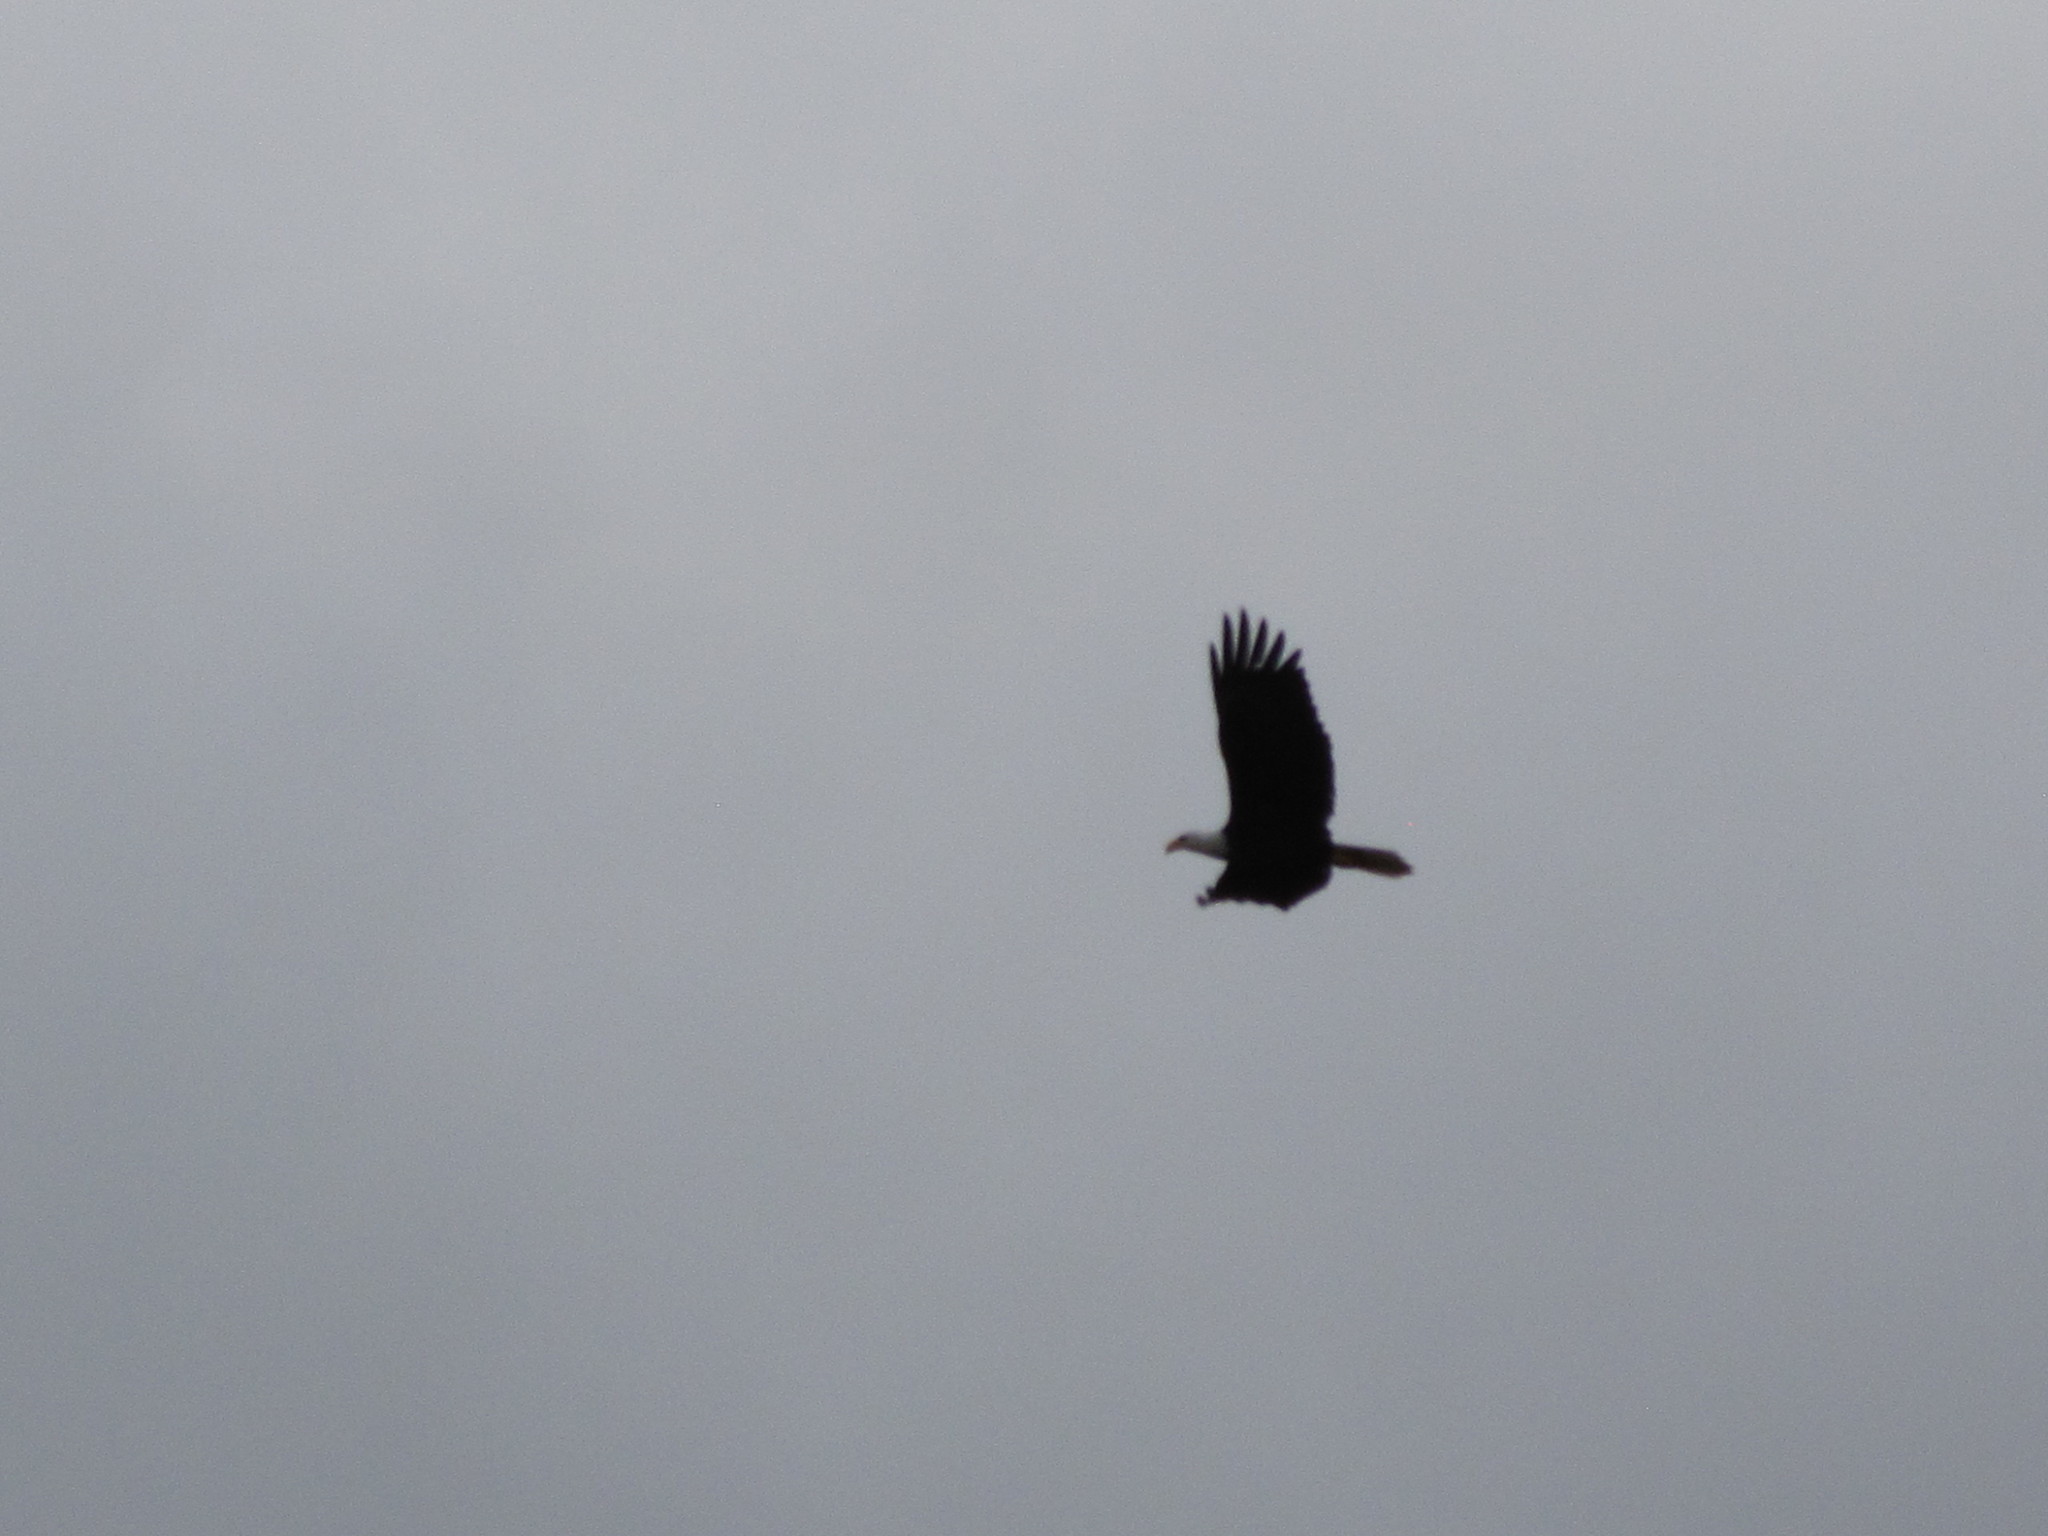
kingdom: Animalia
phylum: Chordata
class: Aves
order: Accipitriformes
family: Accipitridae
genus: Haliaeetus
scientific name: Haliaeetus leucocephalus
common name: Bald eagle
